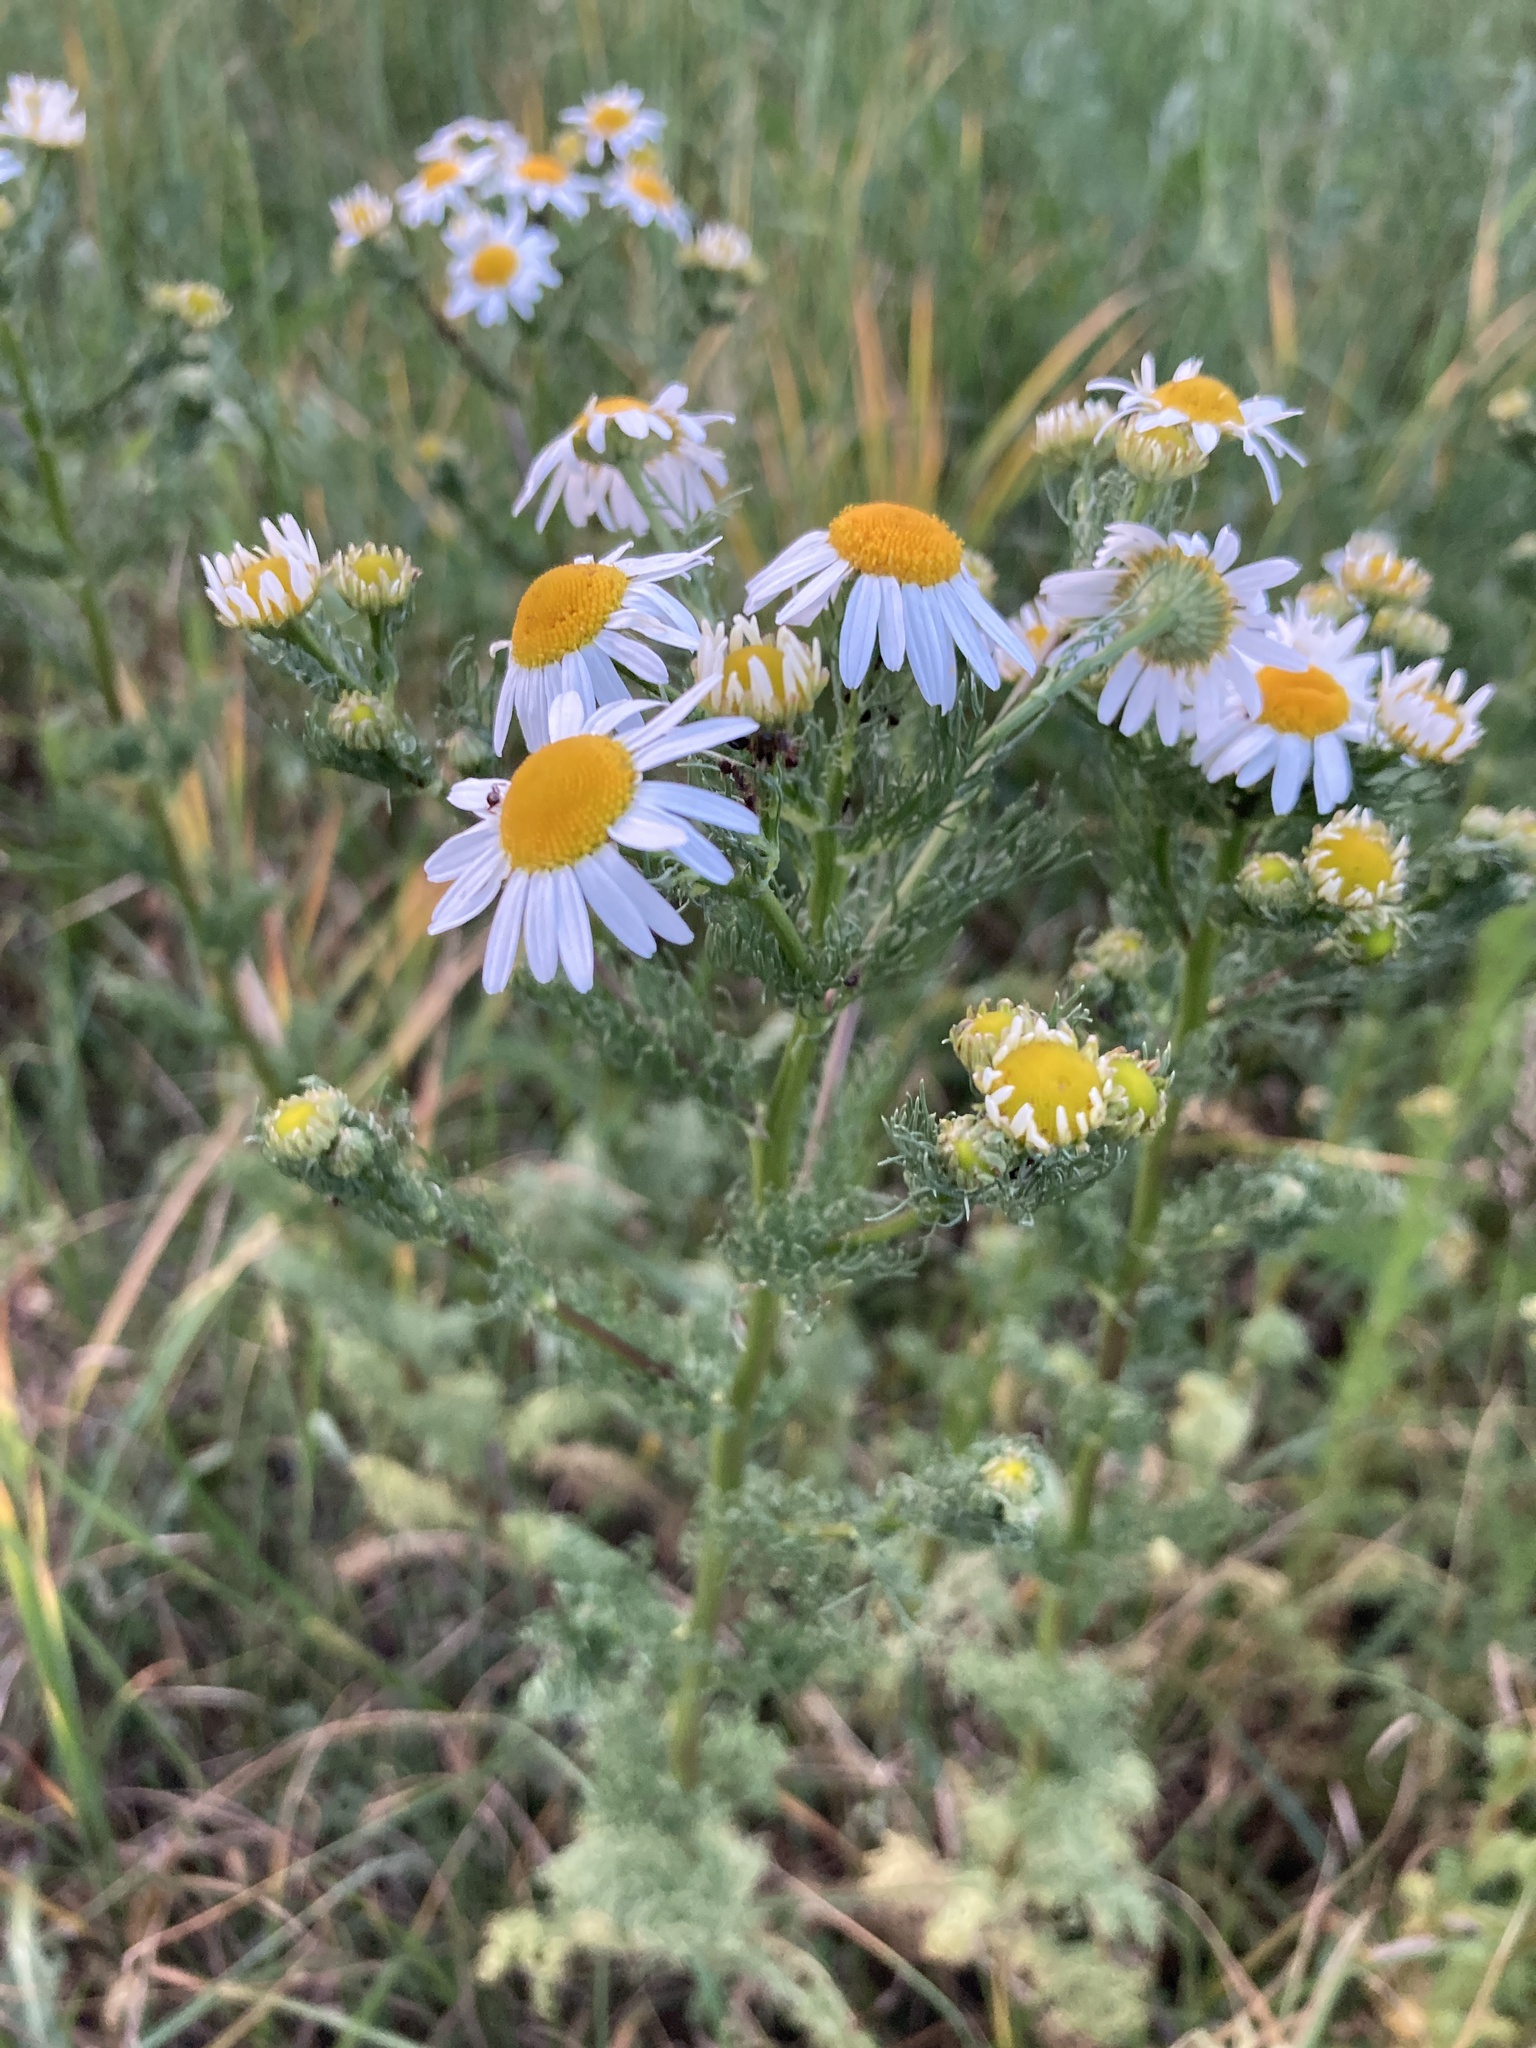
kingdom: Plantae
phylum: Tracheophyta
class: Magnoliopsida
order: Asterales
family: Asteraceae
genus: Tripleurospermum
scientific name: Tripleurospermum inodorum
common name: Scentless mayweed
